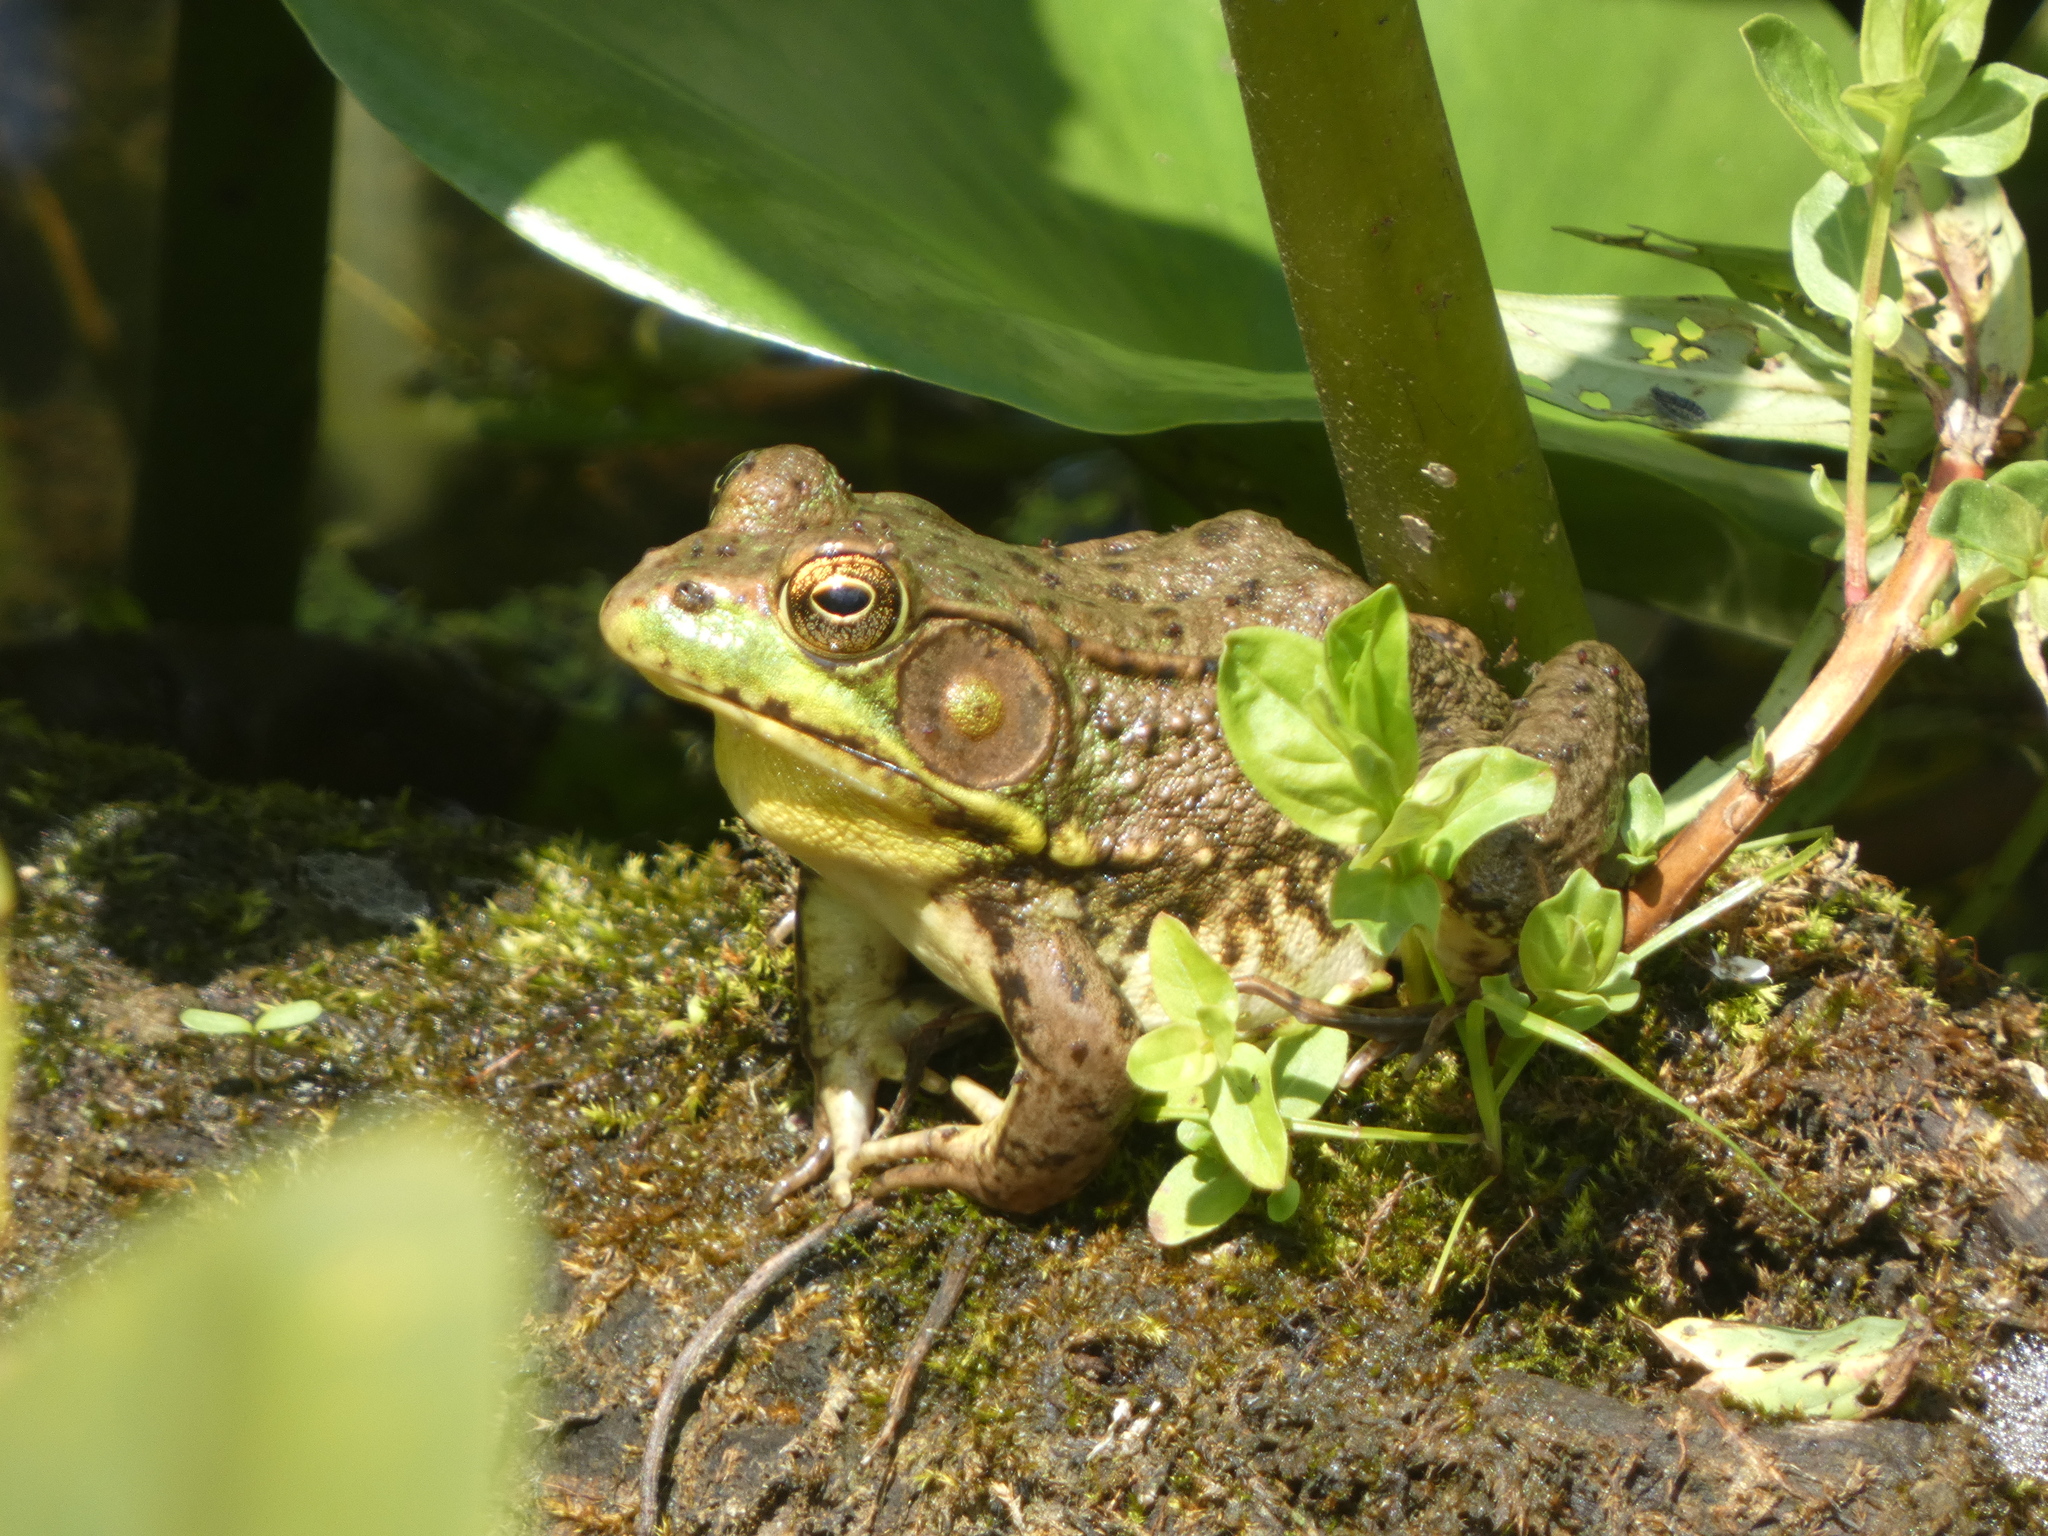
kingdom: Animalia
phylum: Chordata
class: Amphibia
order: Anura
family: Ranidae
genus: Lithobates
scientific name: Lithobates clamitans
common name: Green frog
